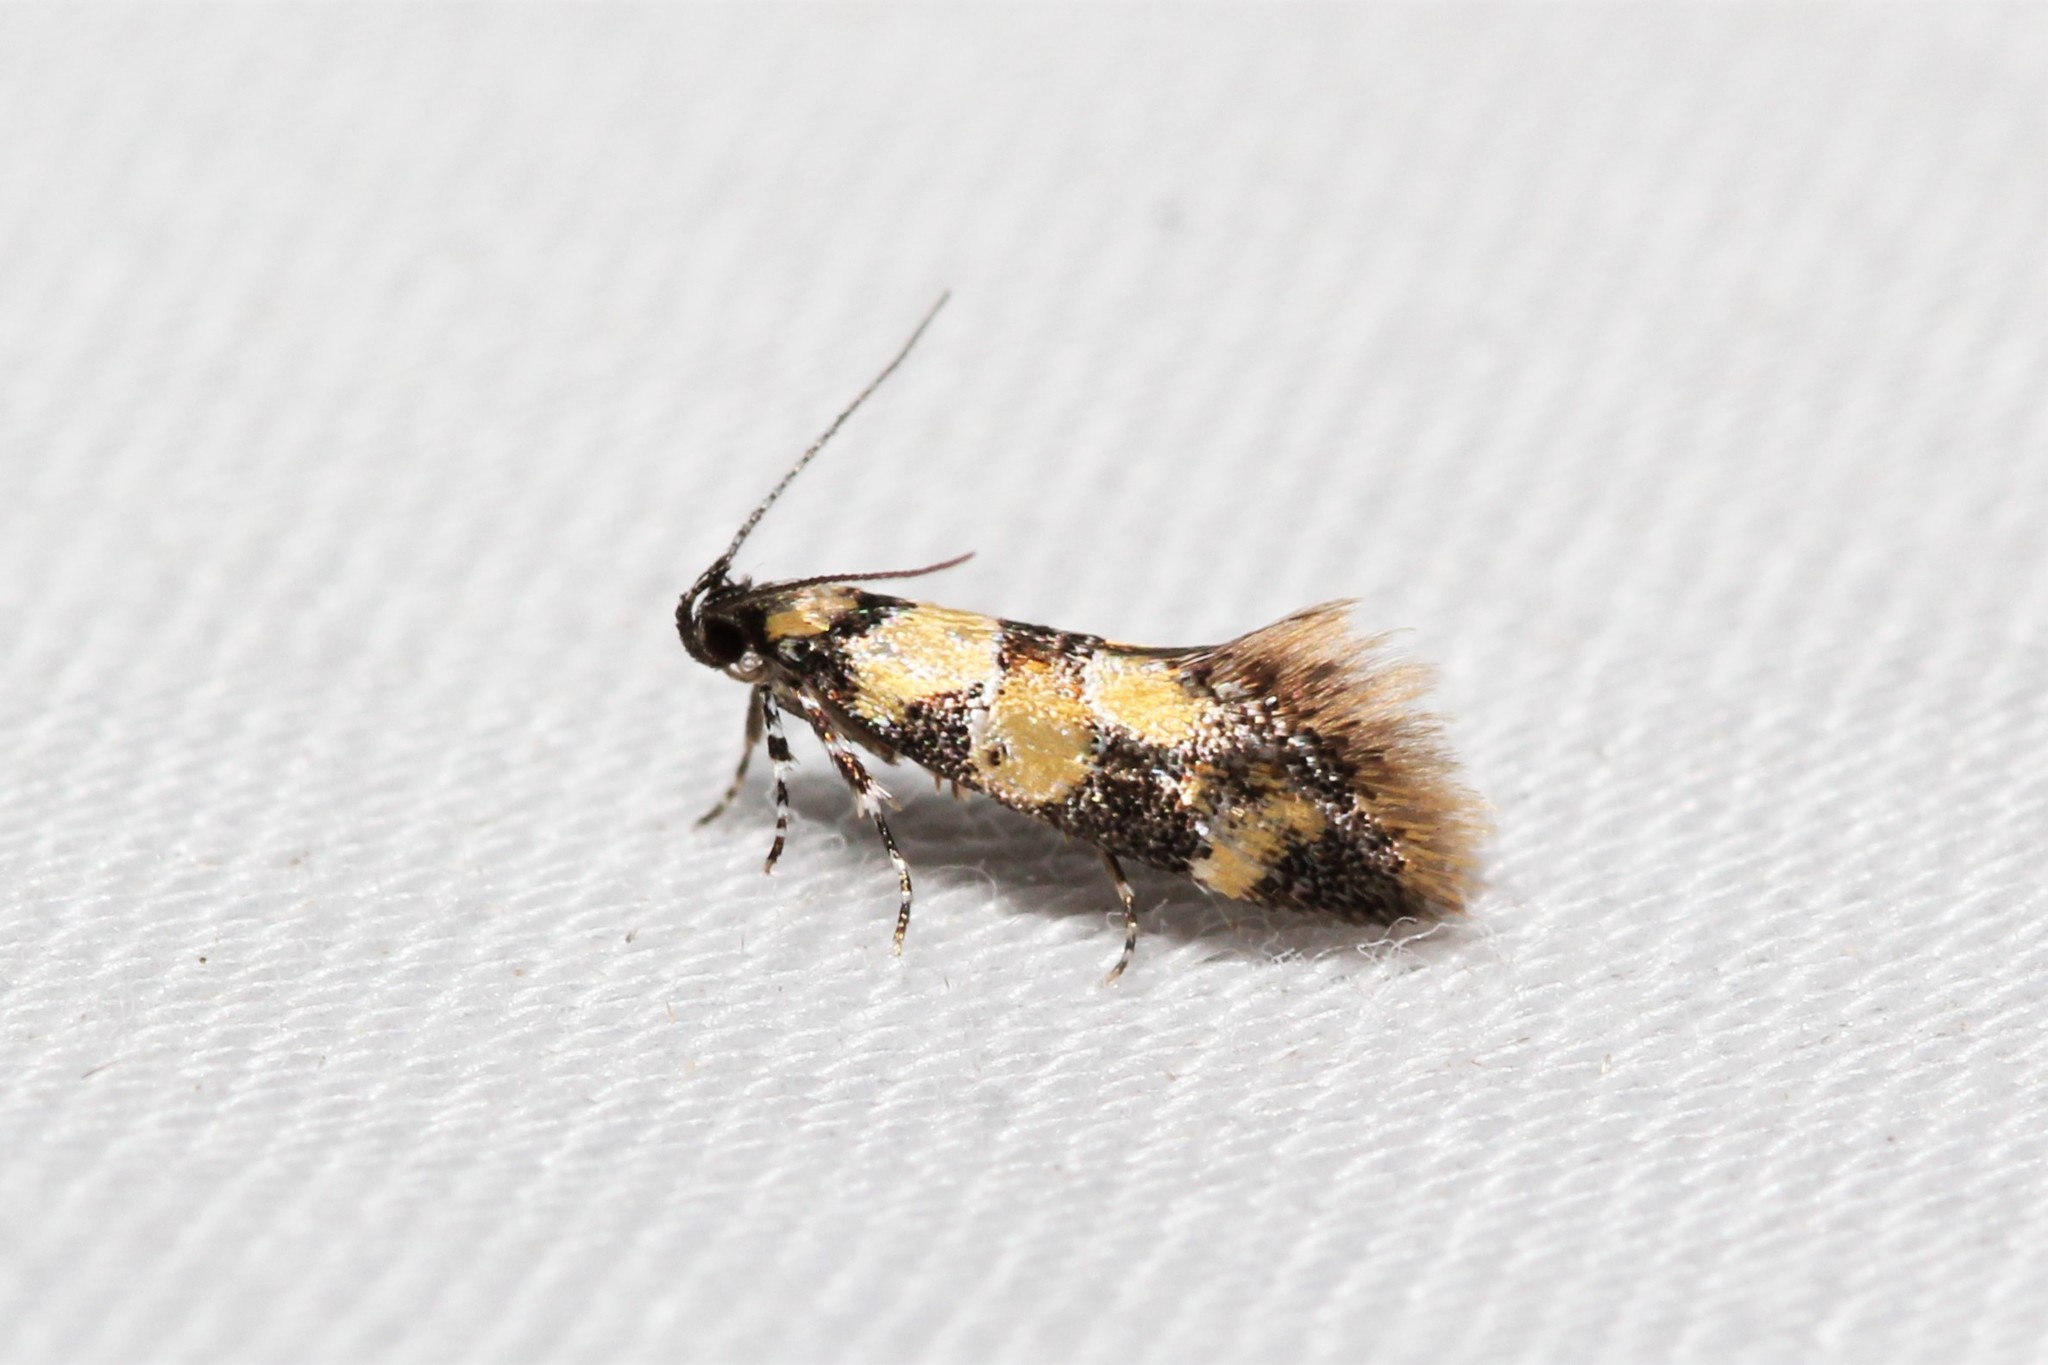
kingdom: Animalia
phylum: Arthropoda
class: Insecta
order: Lepidoptera
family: Oecophoridae
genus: Decantha
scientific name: Decantha borkhausenii
